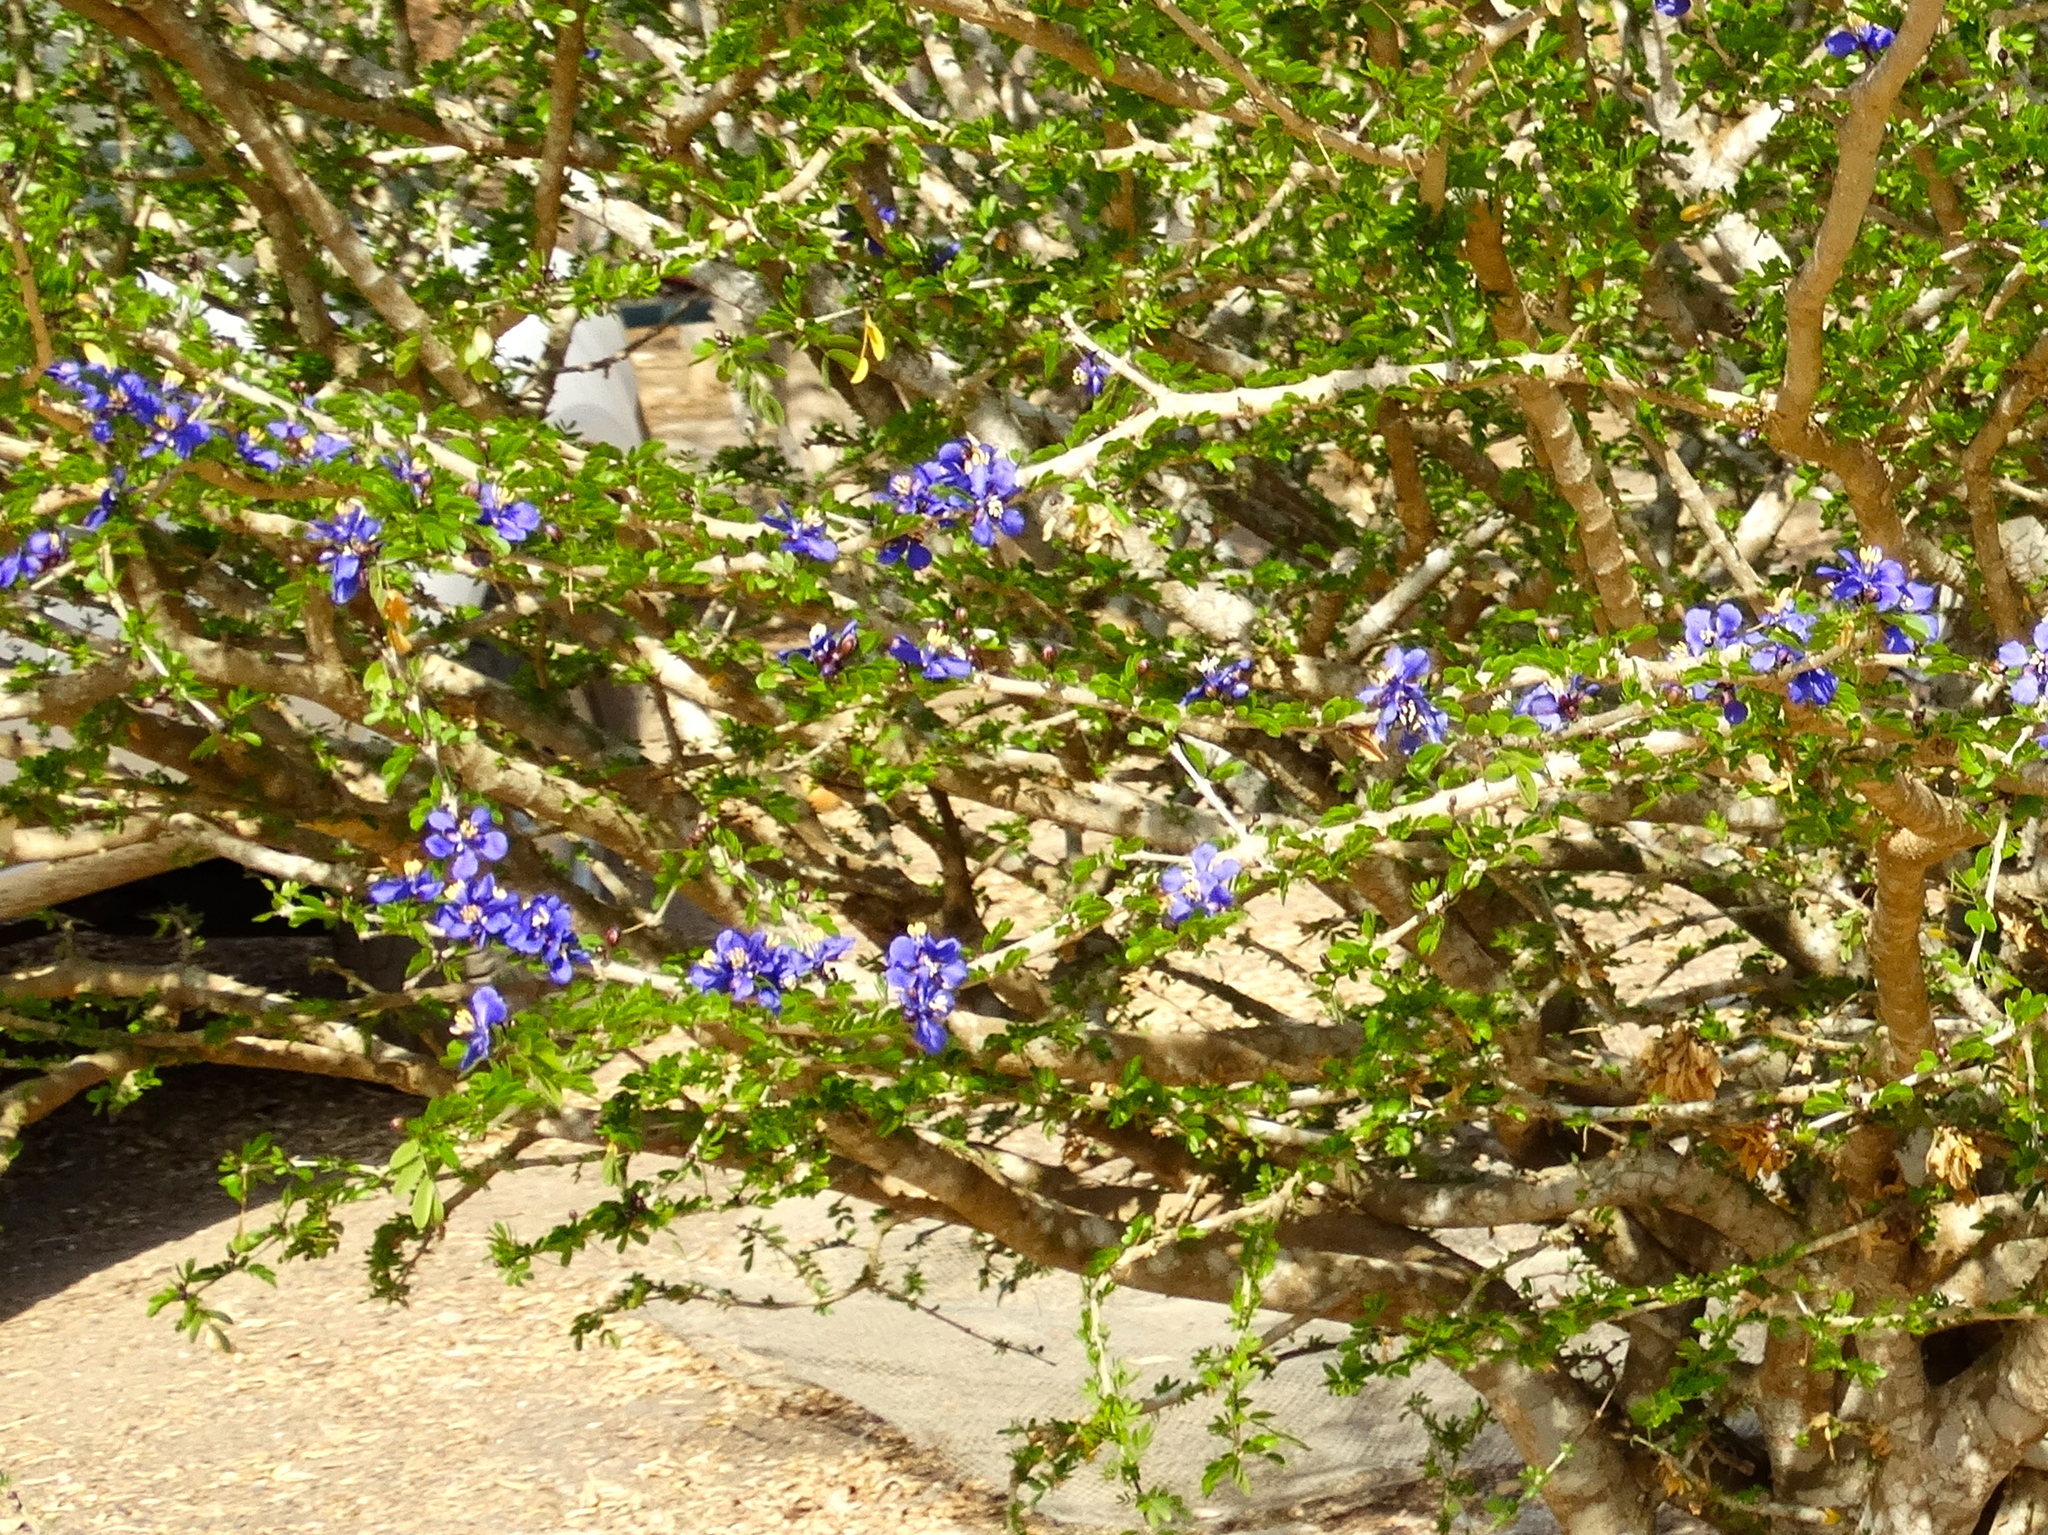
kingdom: Plantae
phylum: Tracheophyta
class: Magnoliopsida
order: Zygophyllales
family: Zygophyllaceae
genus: Guaiacum
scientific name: Guaiacum coulteri
